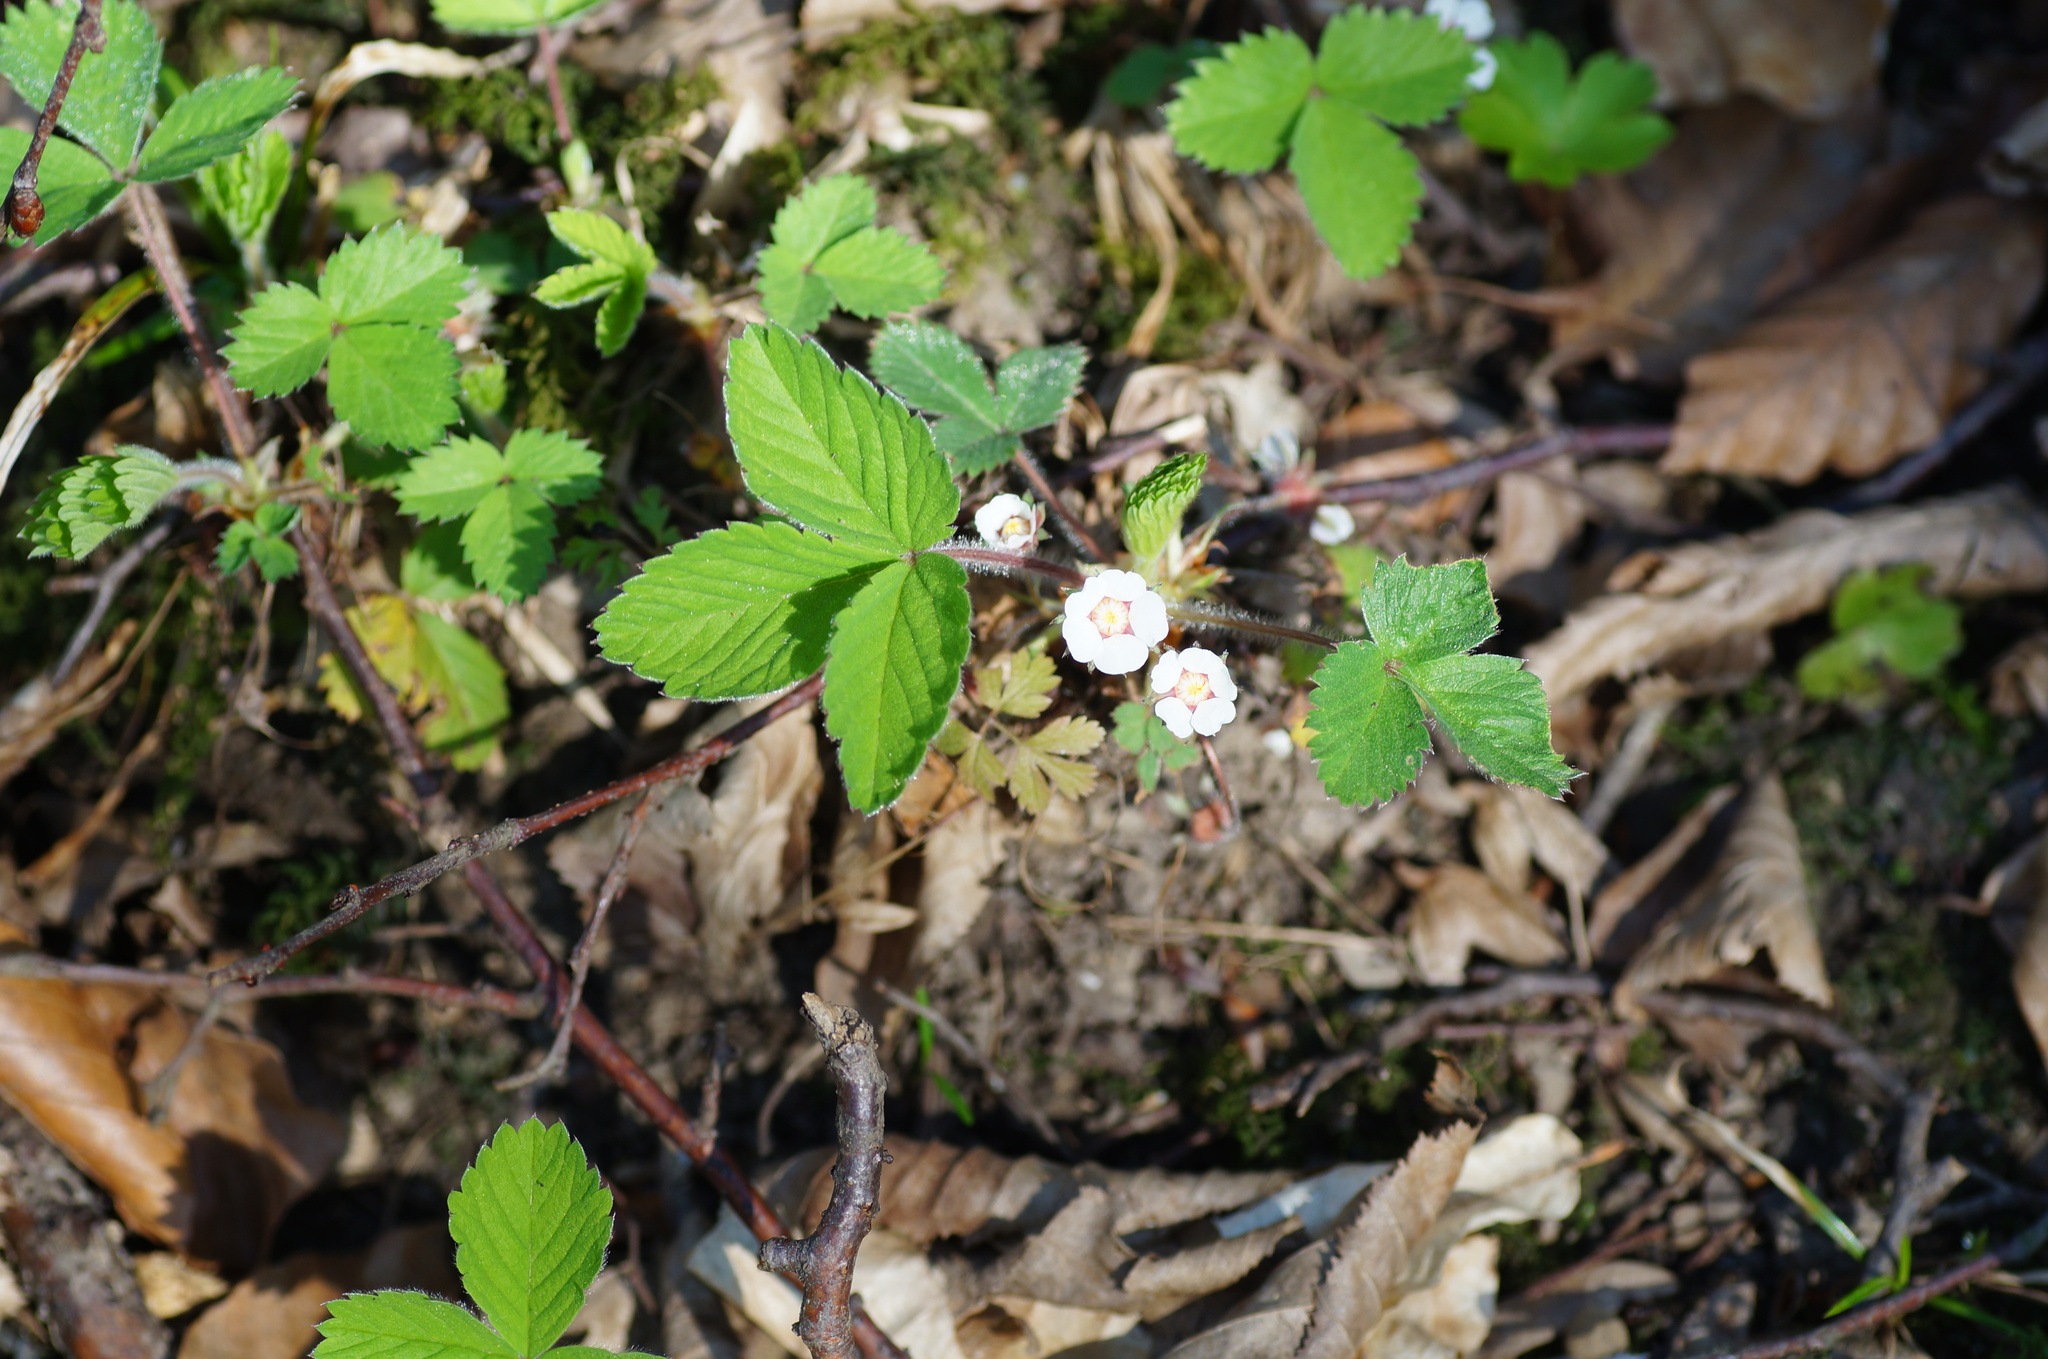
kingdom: Plantae
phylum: Tracheophyta
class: Magnoliopsida
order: Rosales
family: Rosaceae
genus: Potentilla
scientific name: Potentilla micrantha
